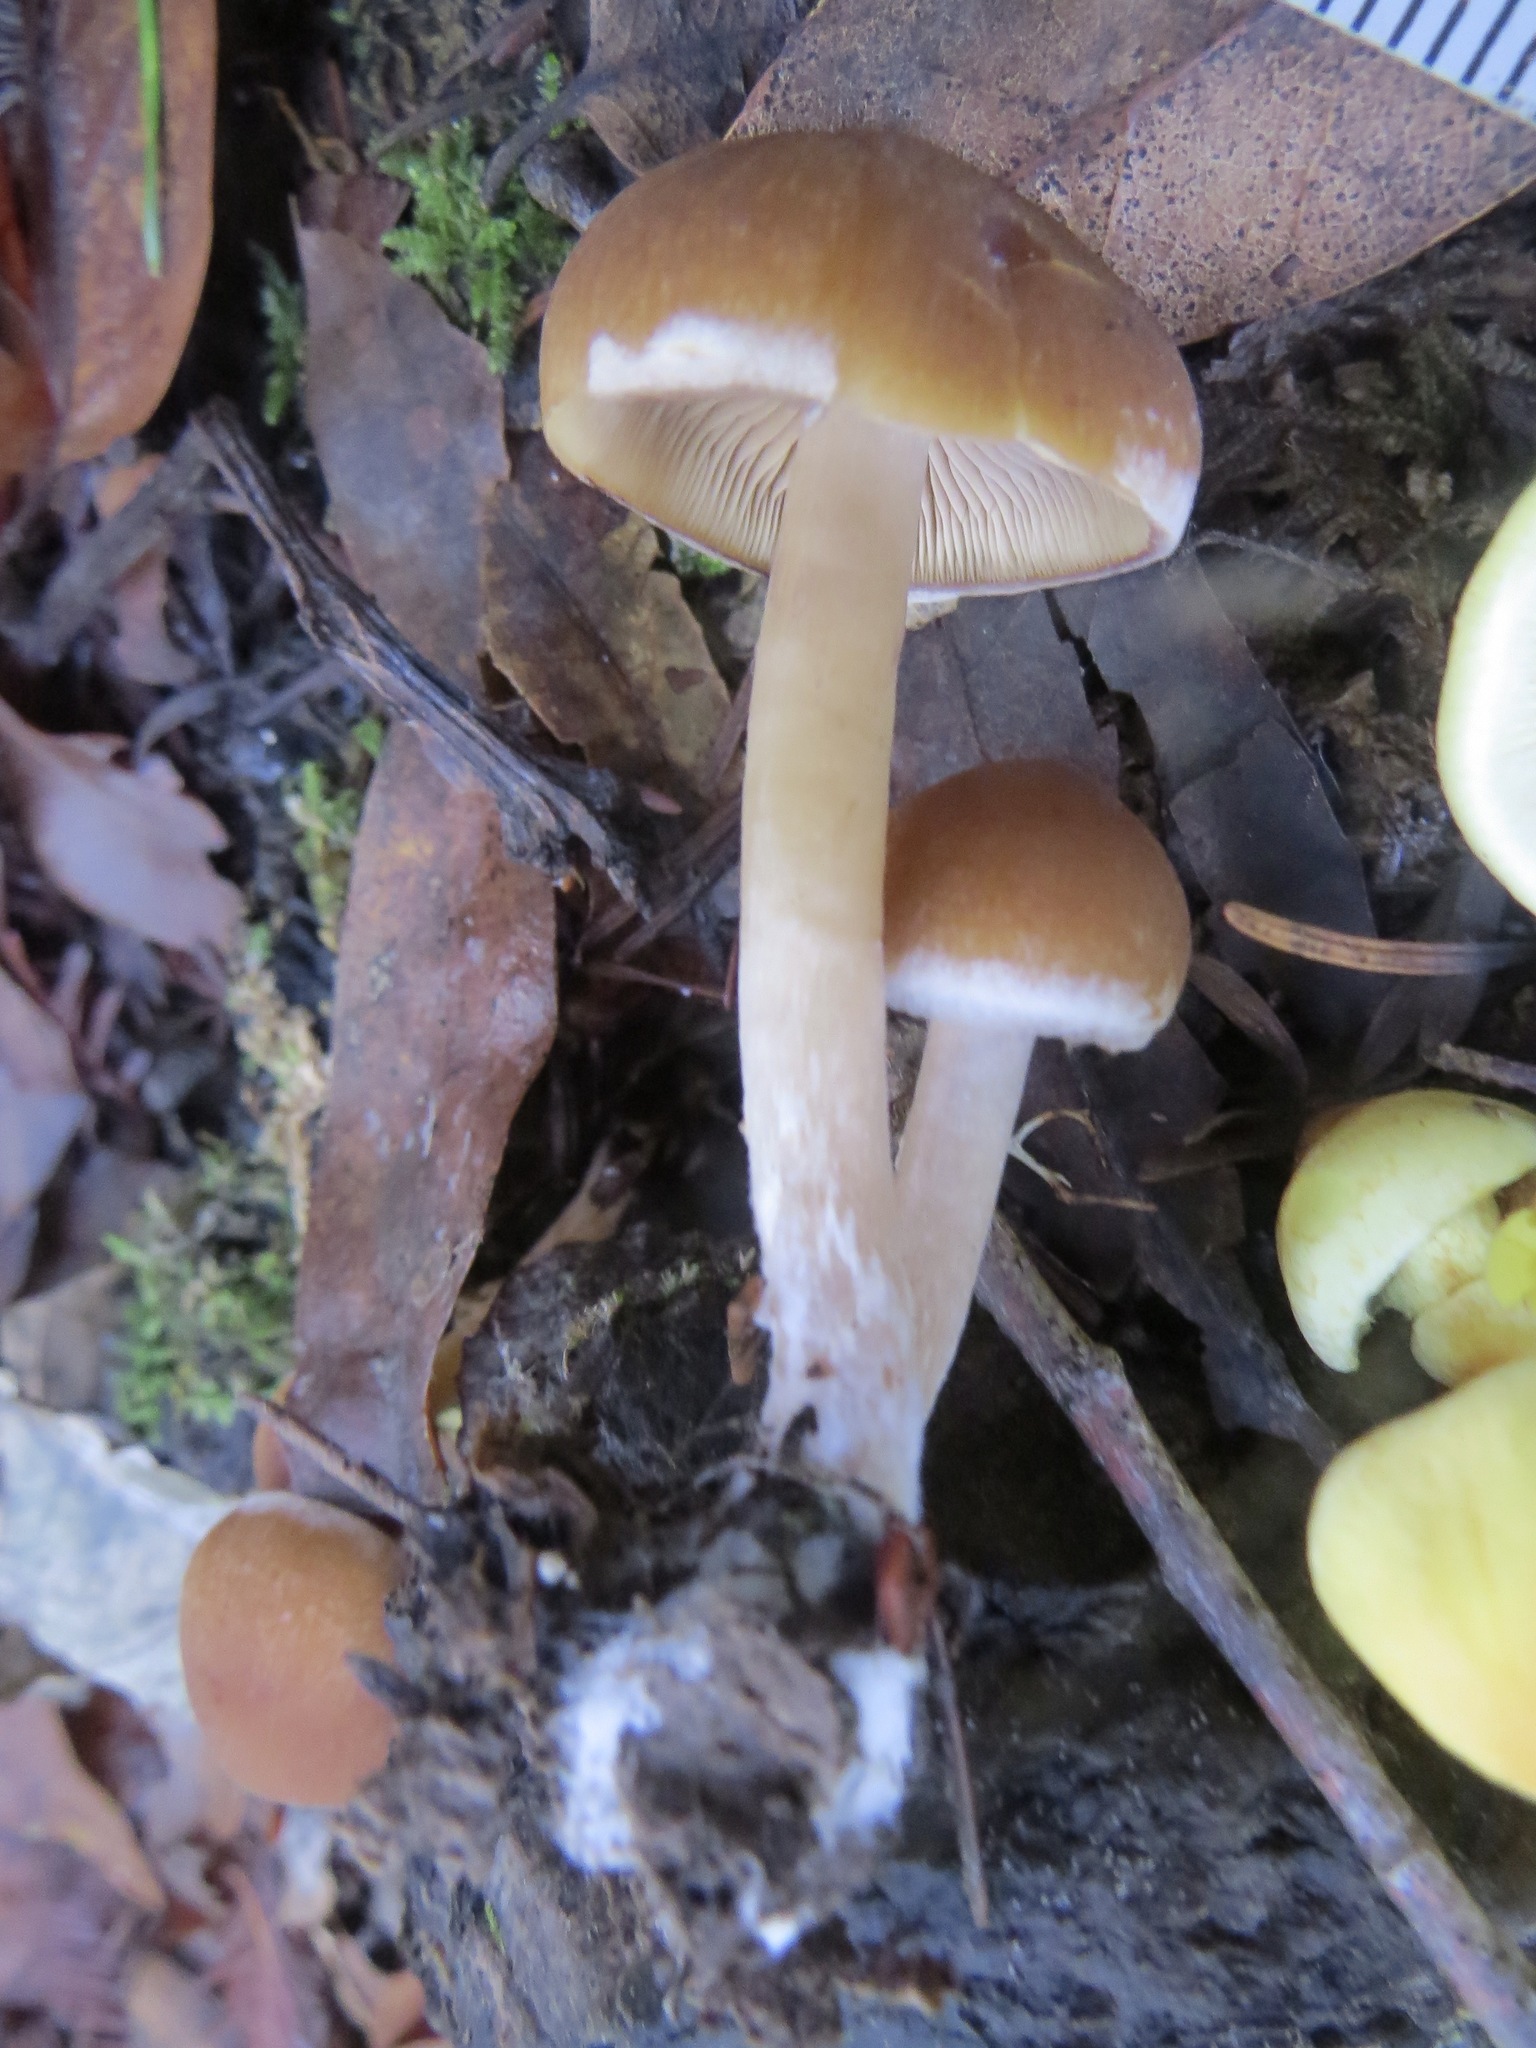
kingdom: Fungi
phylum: Basidiomycota
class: Agaricomycetes
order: Agaricales
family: Psathyrellaceae
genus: Psathyrella
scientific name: Psathyrella piluliformis
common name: Common stump brittlestem
